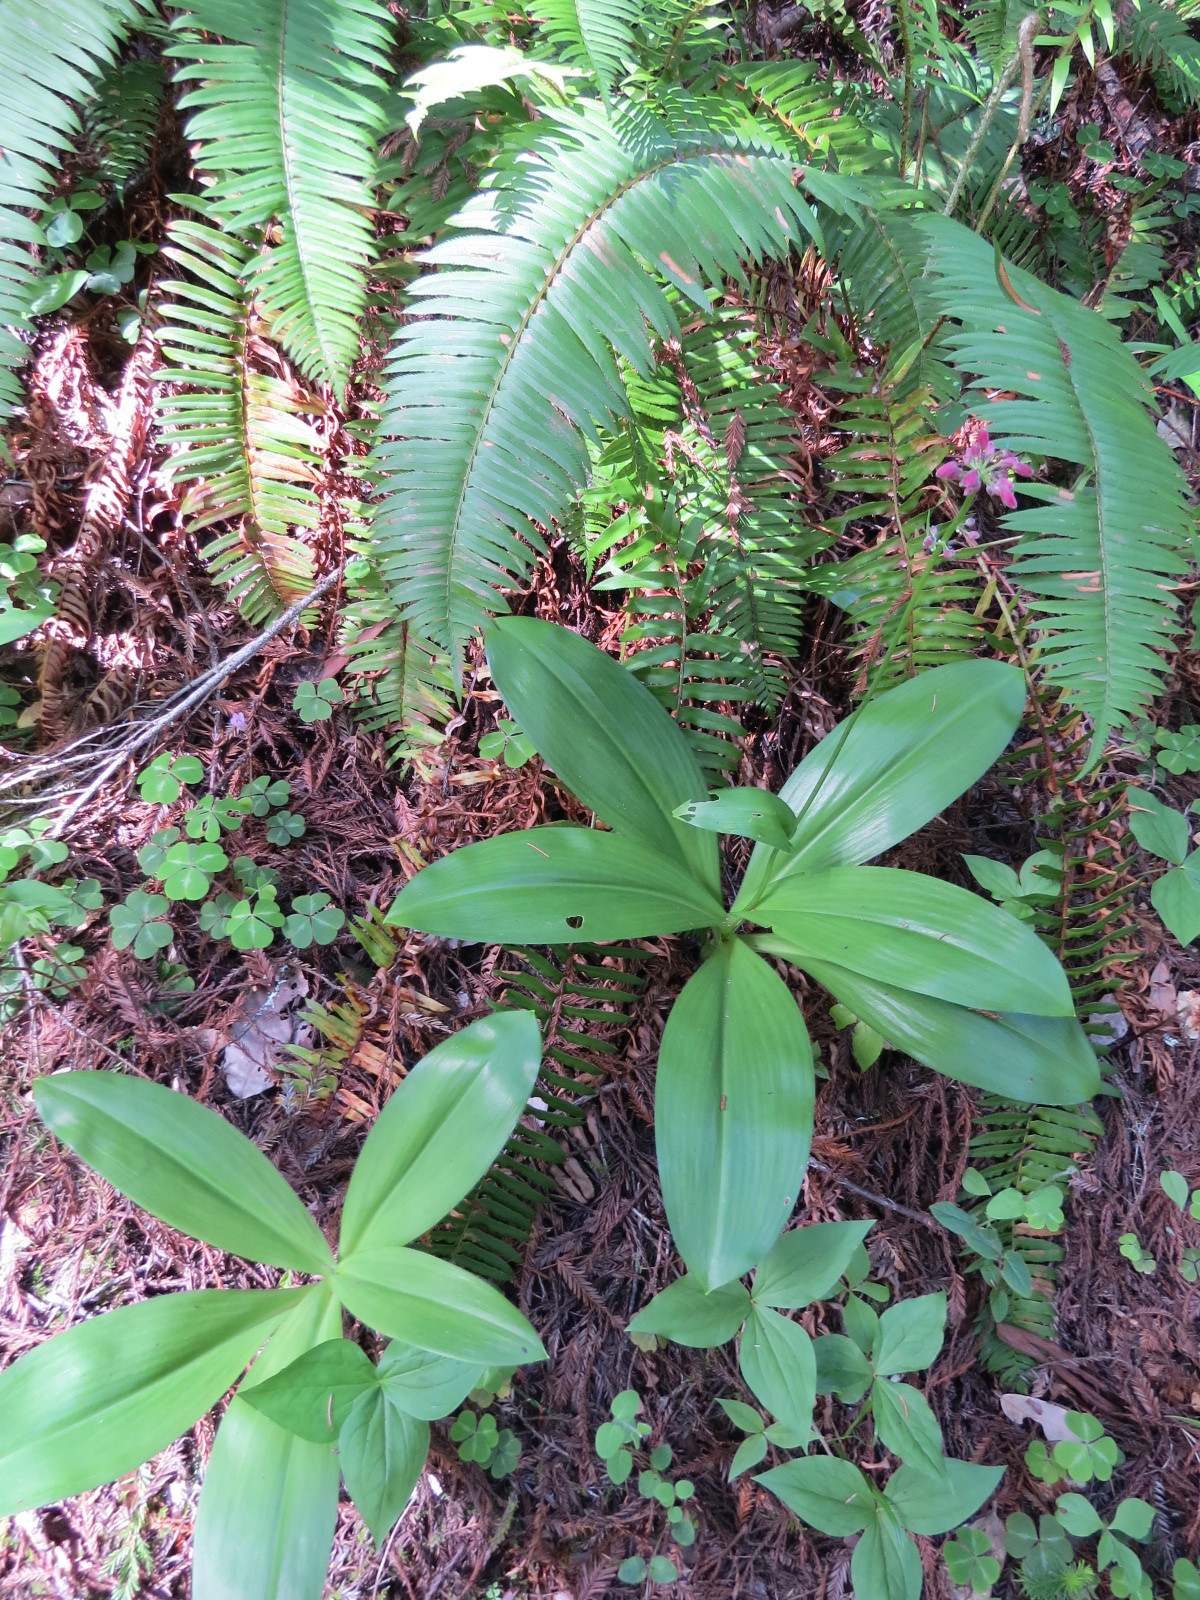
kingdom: Plantae
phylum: Tracheophyta
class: Liliopsida
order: Liliales
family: Liliaceae
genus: Clintonia
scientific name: Clintonia andrewsiana
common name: Red clintonia
